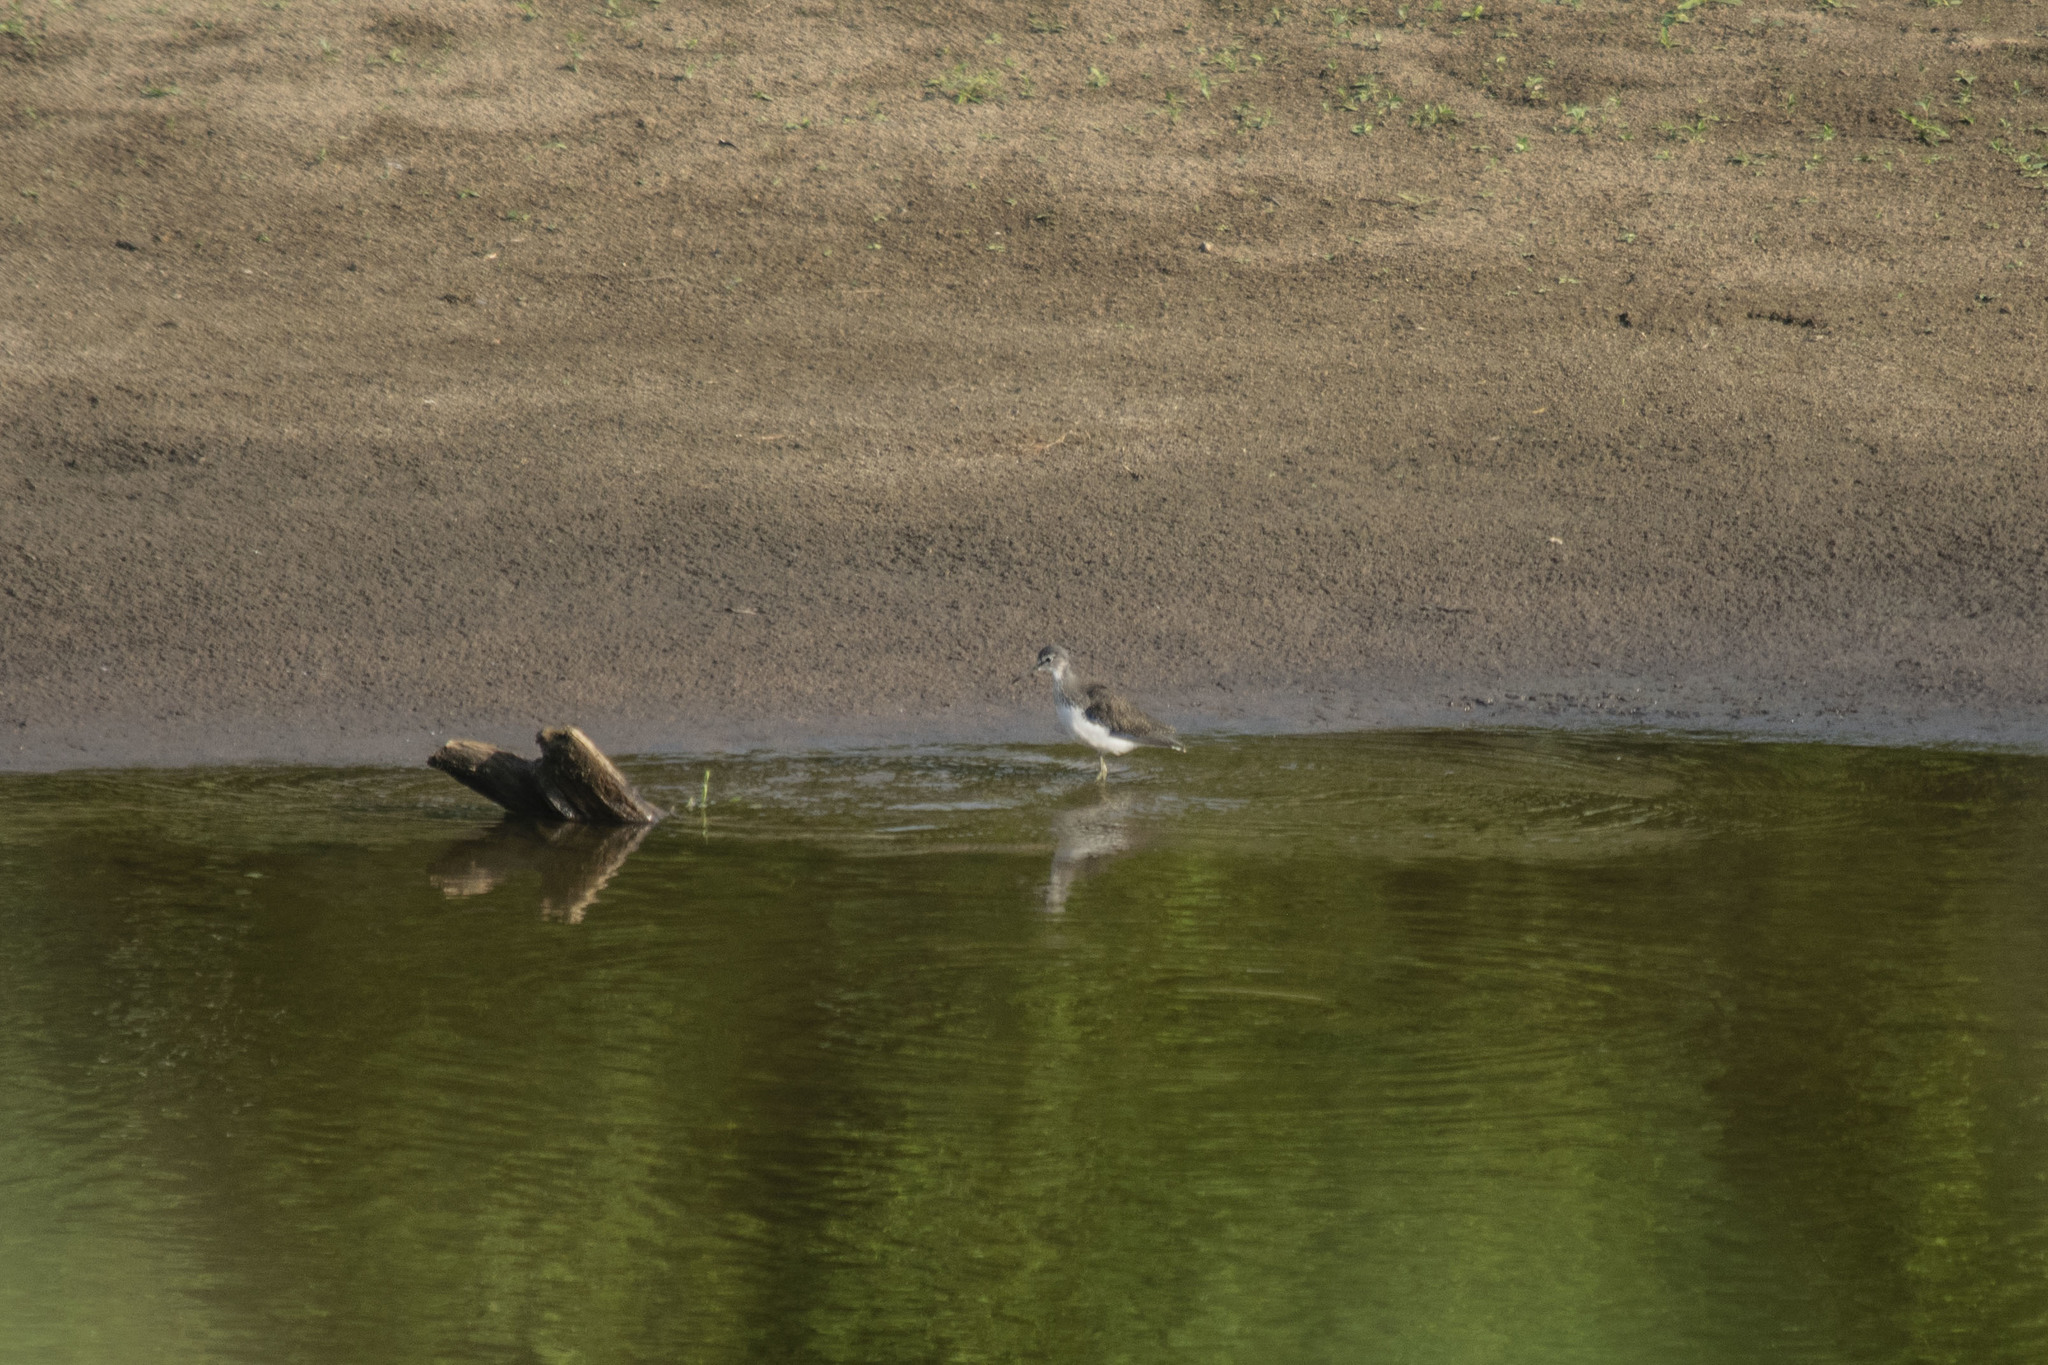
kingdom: Animalia
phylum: Chordata
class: Aves
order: Charadriiformes
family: Scolopacidae
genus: Tringa
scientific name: Tringa ochropus
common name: Green sandpiper
